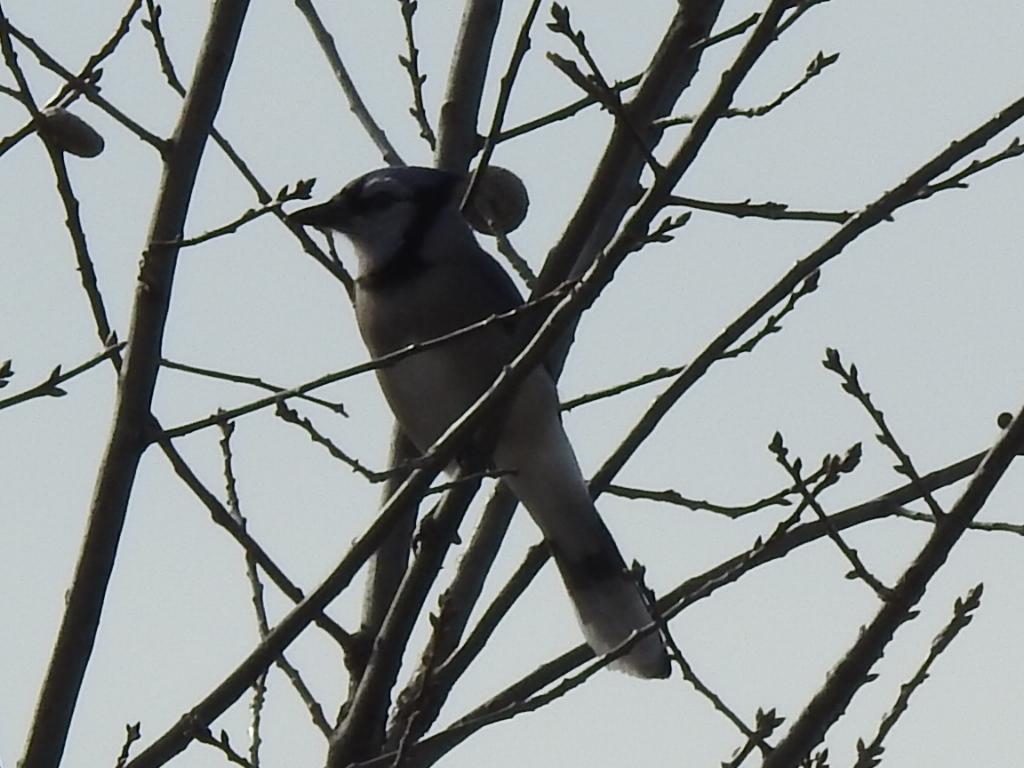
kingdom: Animalia
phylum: Chordata
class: Aves
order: Passeriformes
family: Corvidae
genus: Cyanocitta
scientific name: Cyanocitta cristata
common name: Blue jay
